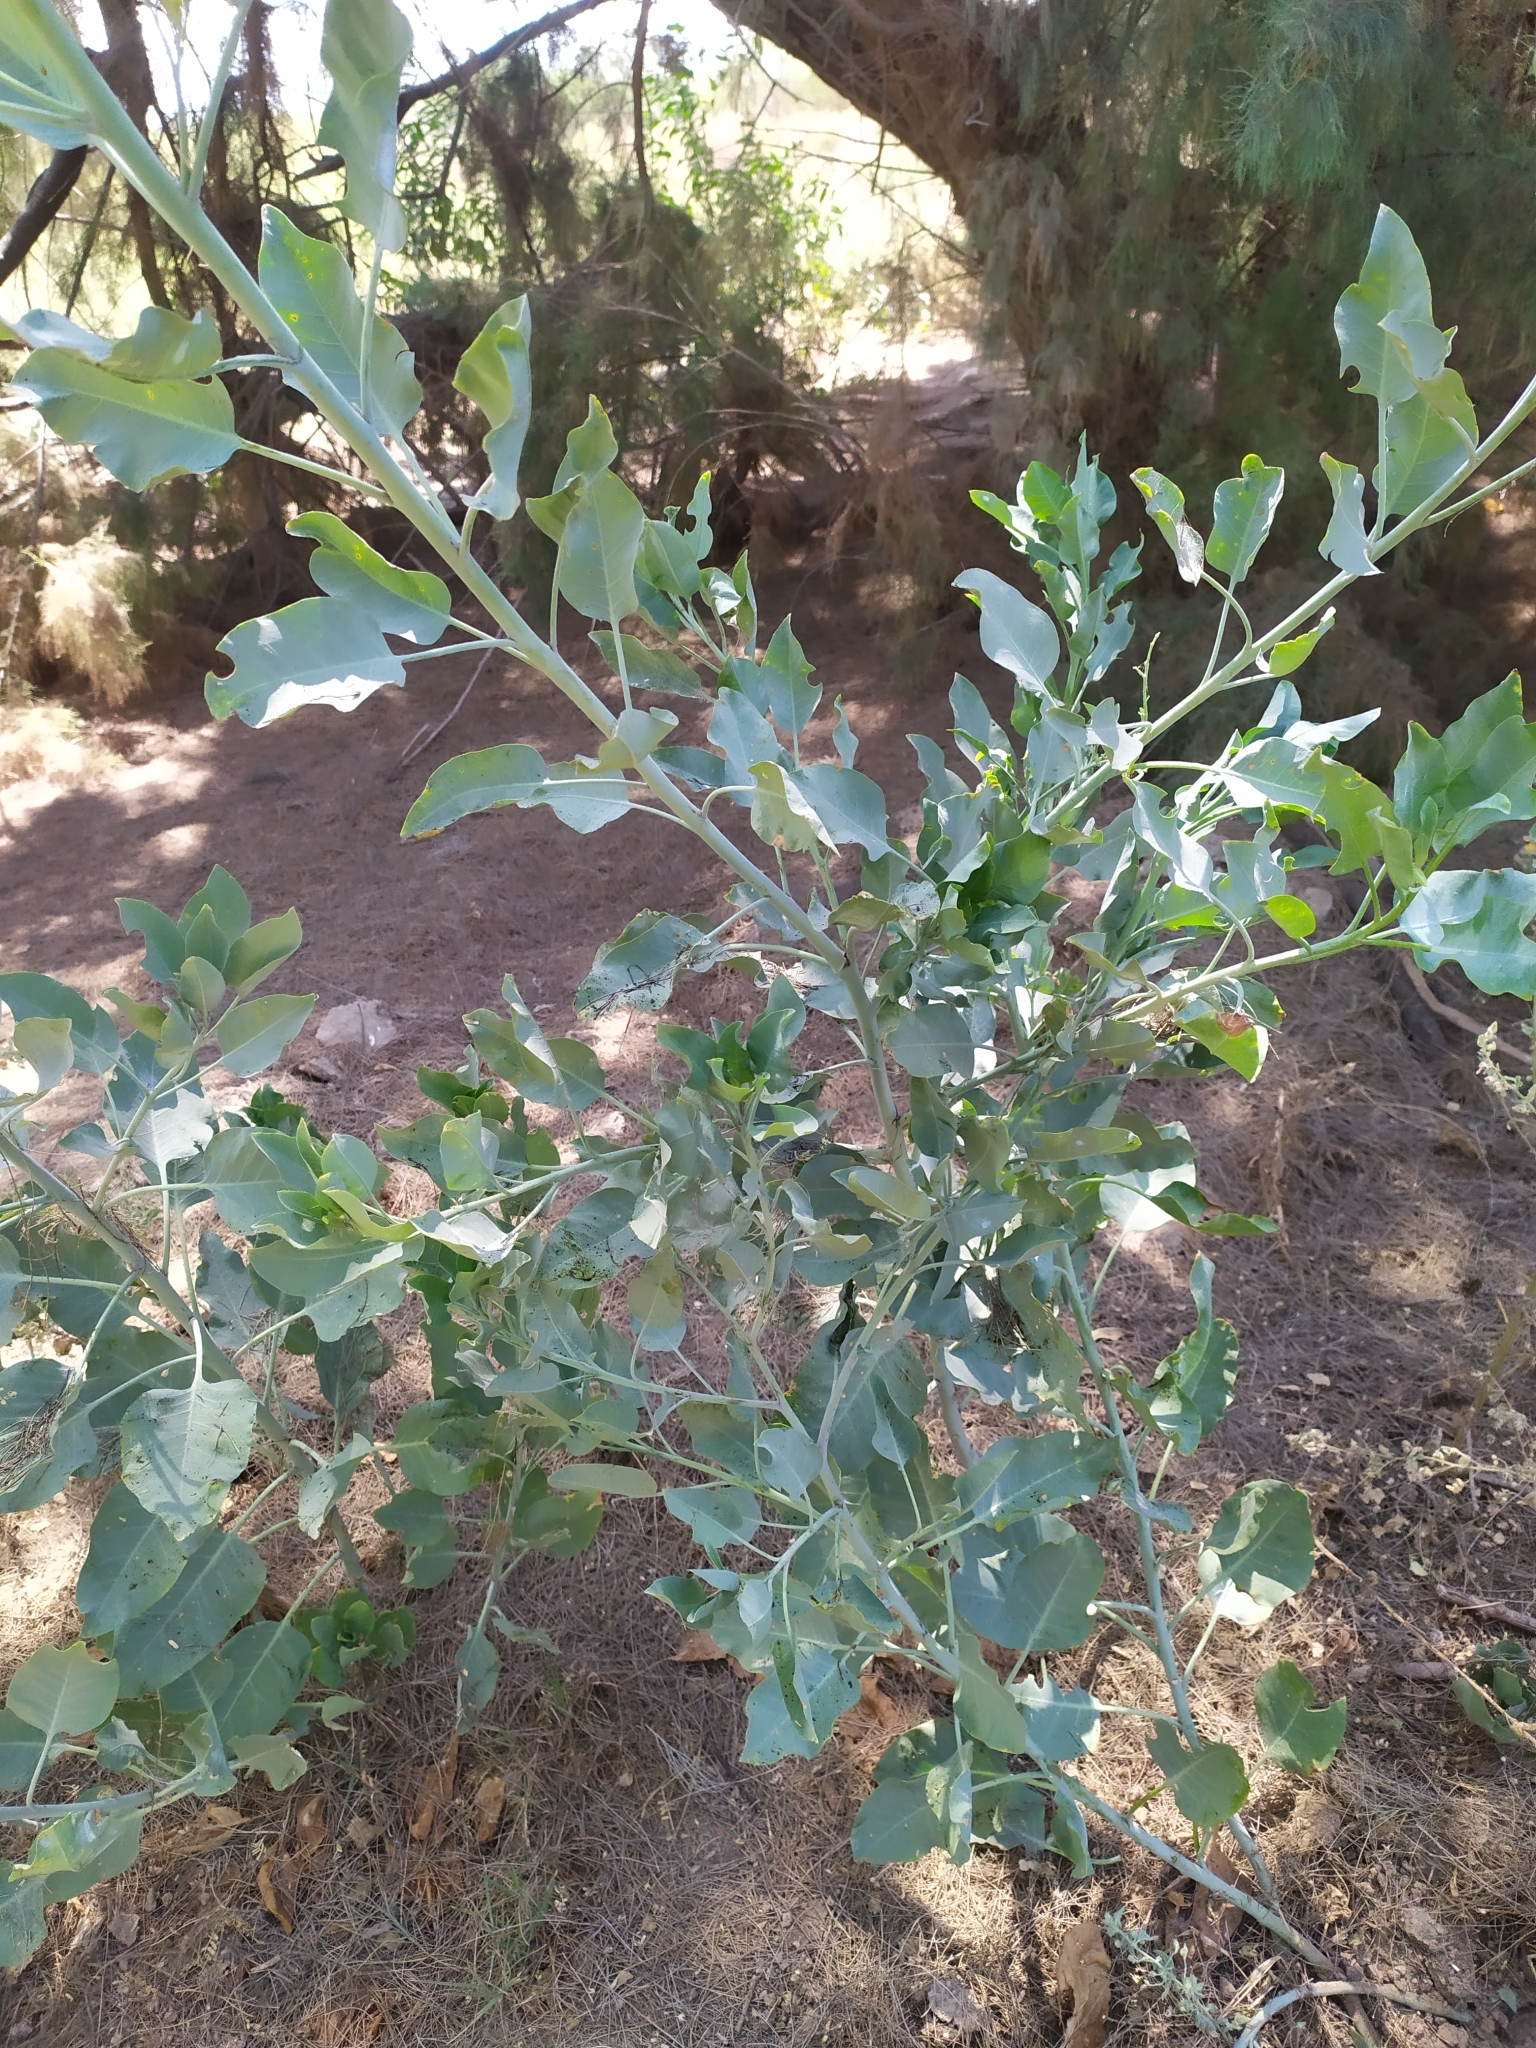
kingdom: Plantae
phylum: Tracheophyta
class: Magnoliopsida
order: Solanales
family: Solanaceae
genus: Nicotiana
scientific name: Nicotiana glauca
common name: Tree tobacco
